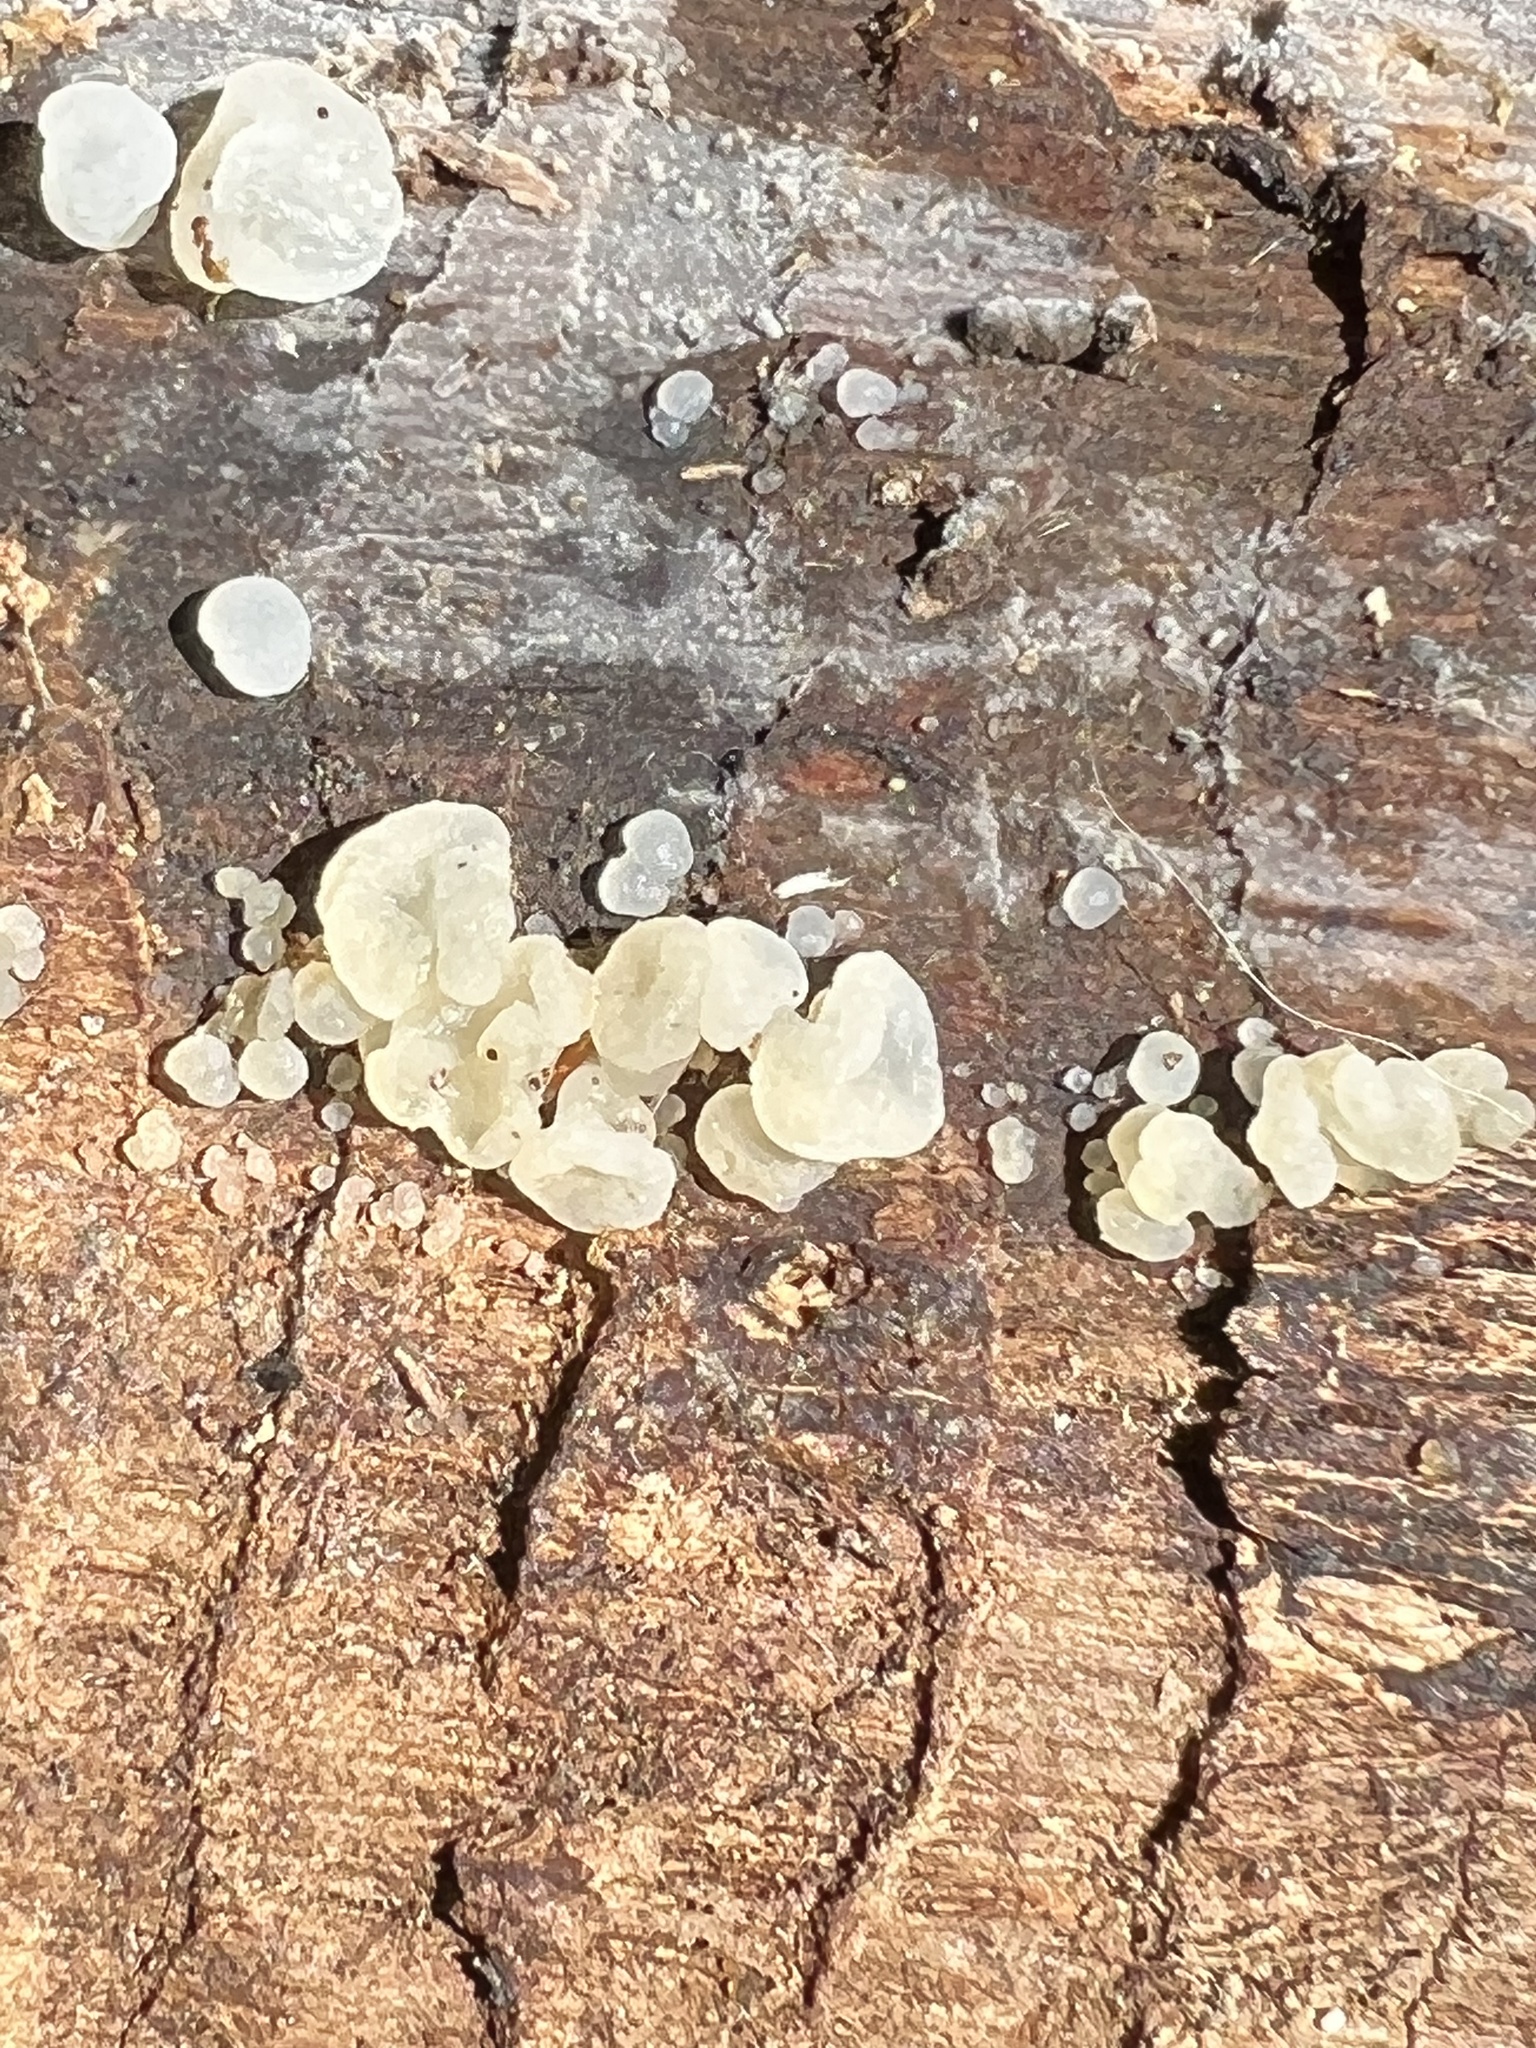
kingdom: Fungi
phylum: Basidiomycota
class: Agaricomycetes
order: Auriculariales
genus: Ductifera
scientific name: Ductifera pululahuana
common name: White jelly fungus
